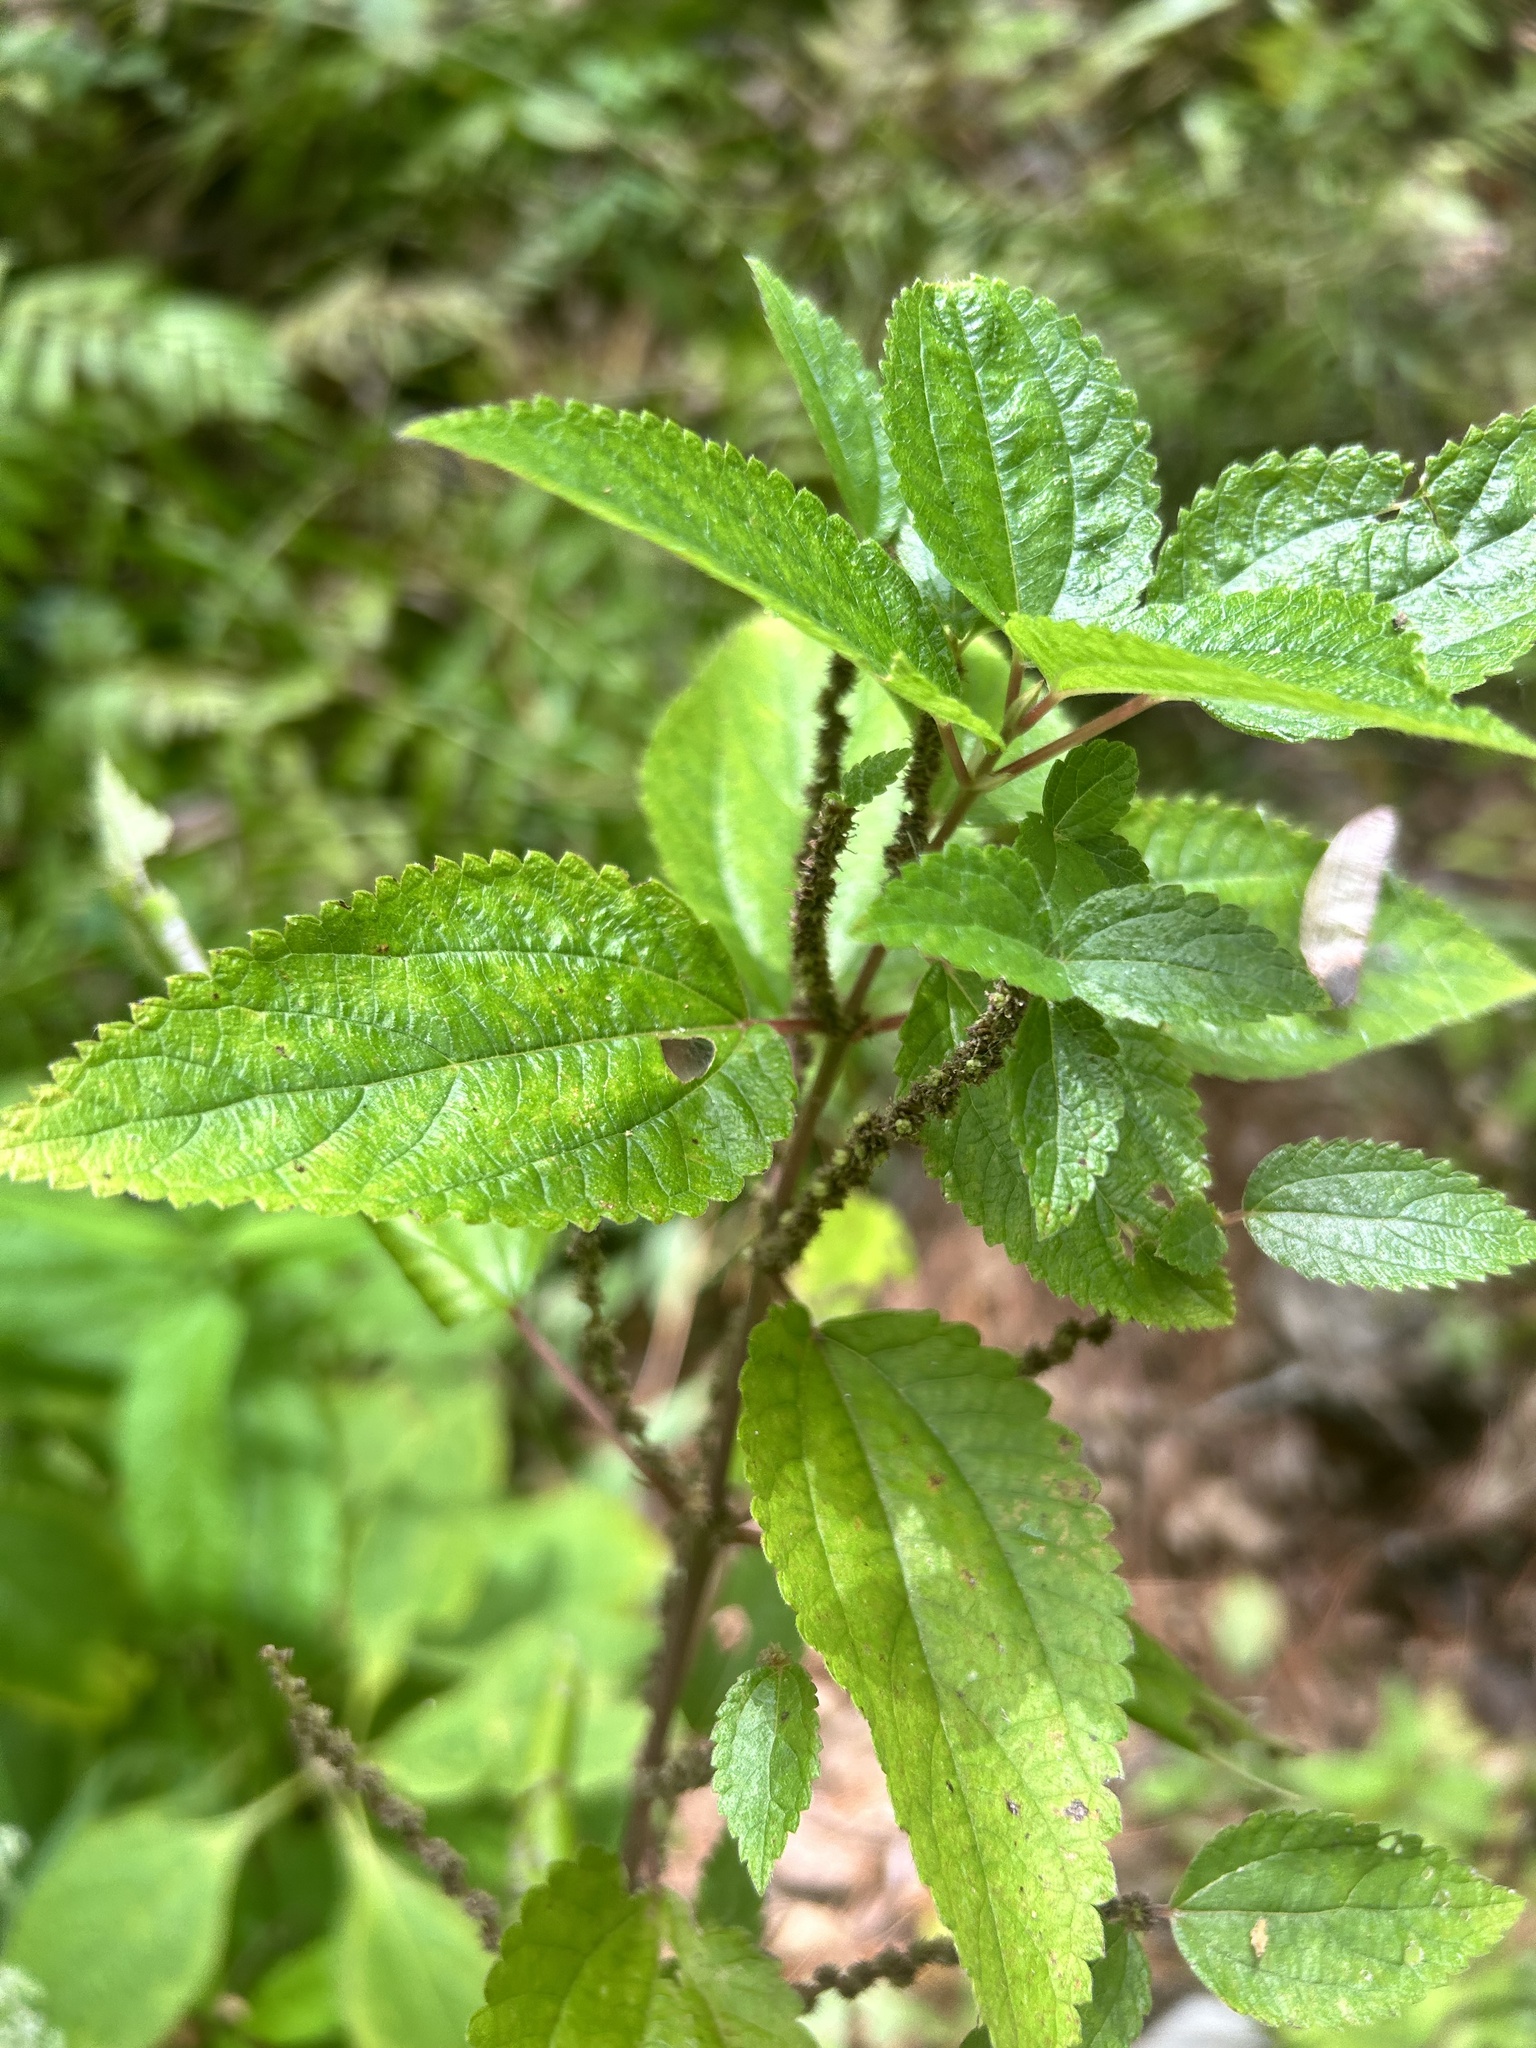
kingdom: Plantae
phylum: Tracheophyta
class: Magnoliopsida
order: Rosales
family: Urticaceae
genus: Boehmeria
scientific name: Boehmeria cylindrica
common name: Bog-hemp
